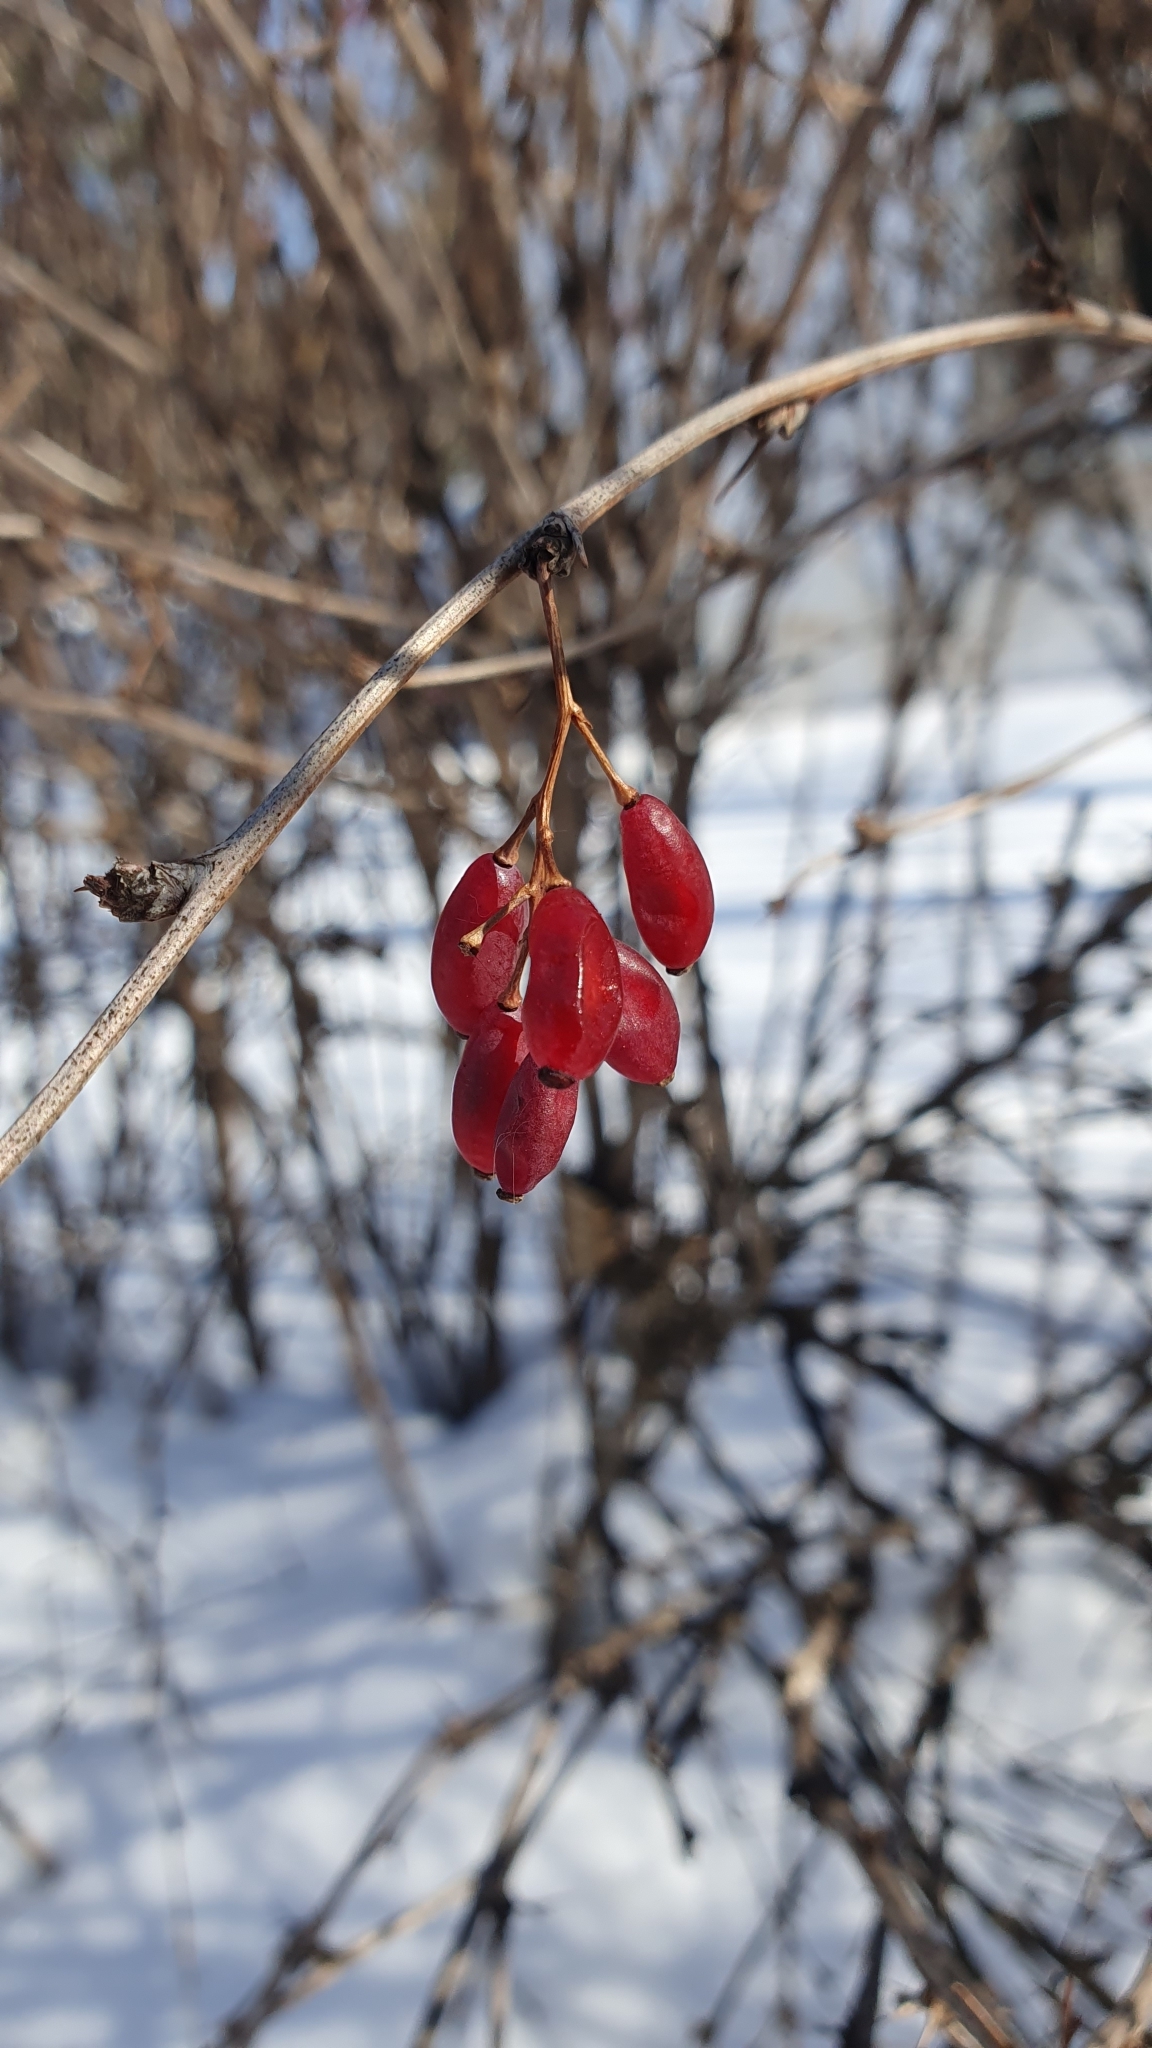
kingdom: Plantae
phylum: Tracheophyta
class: Magnoliopsida
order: Ranunculales
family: Berberidaceae
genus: Berberis
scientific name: Berberis vulgaris
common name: Barberry
